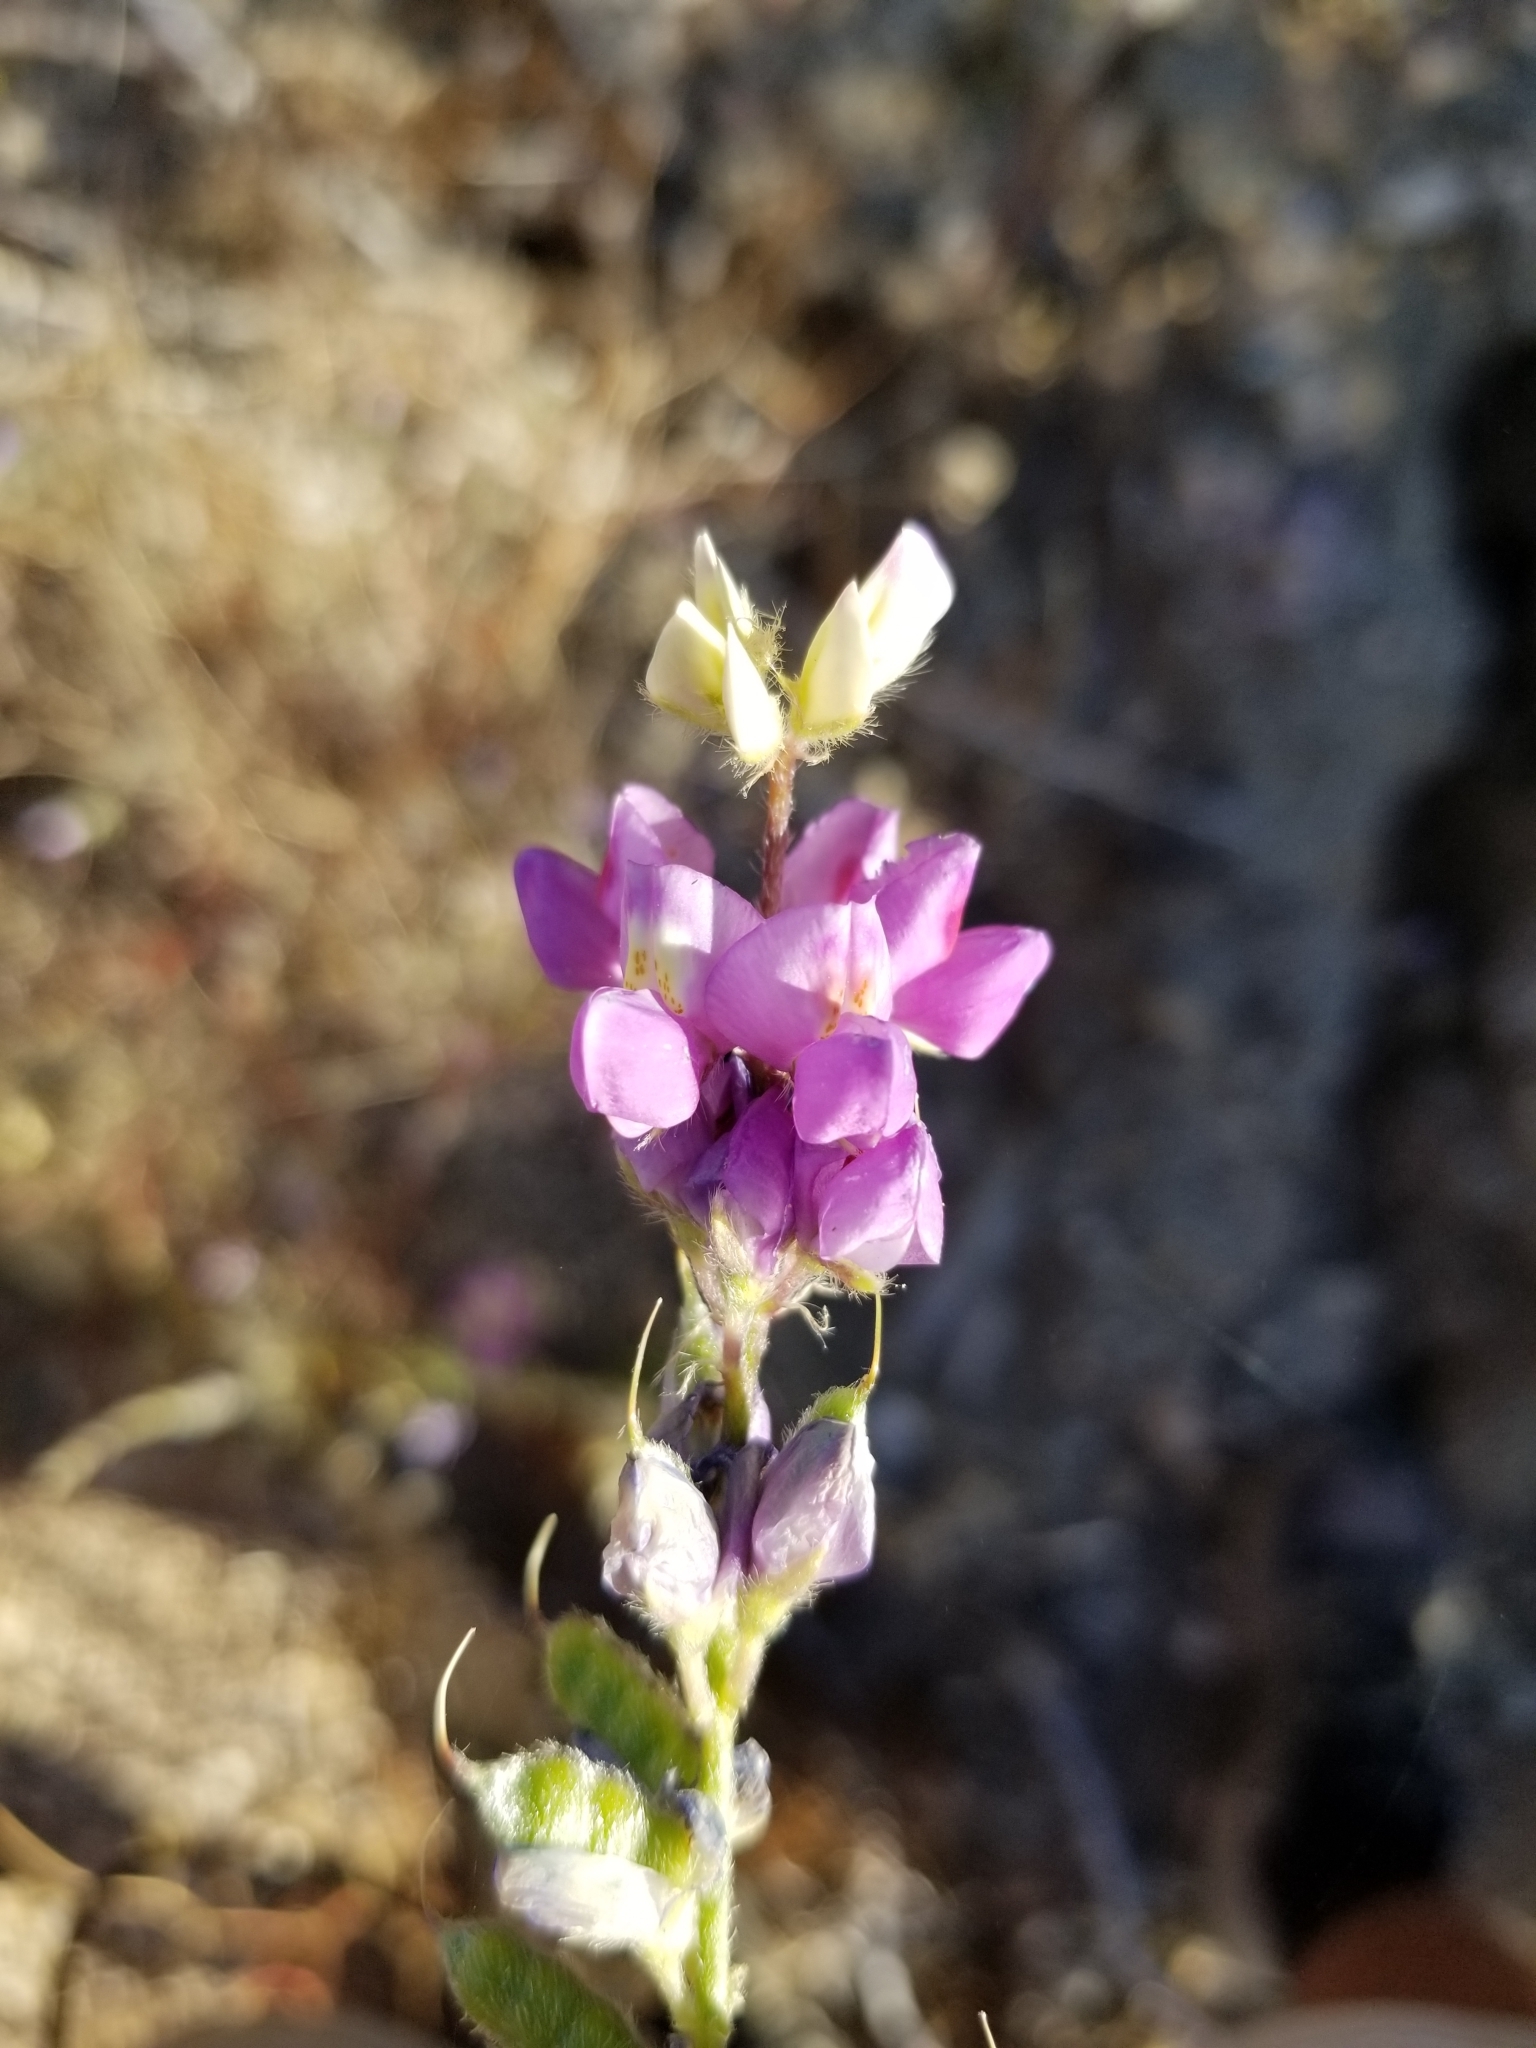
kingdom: Plantae
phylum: Tracheophyta
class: Magnoliopsida
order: Fabales
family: Fabaceae
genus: Lupinus
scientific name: Lupinus arizonicus
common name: Arizona lupine
